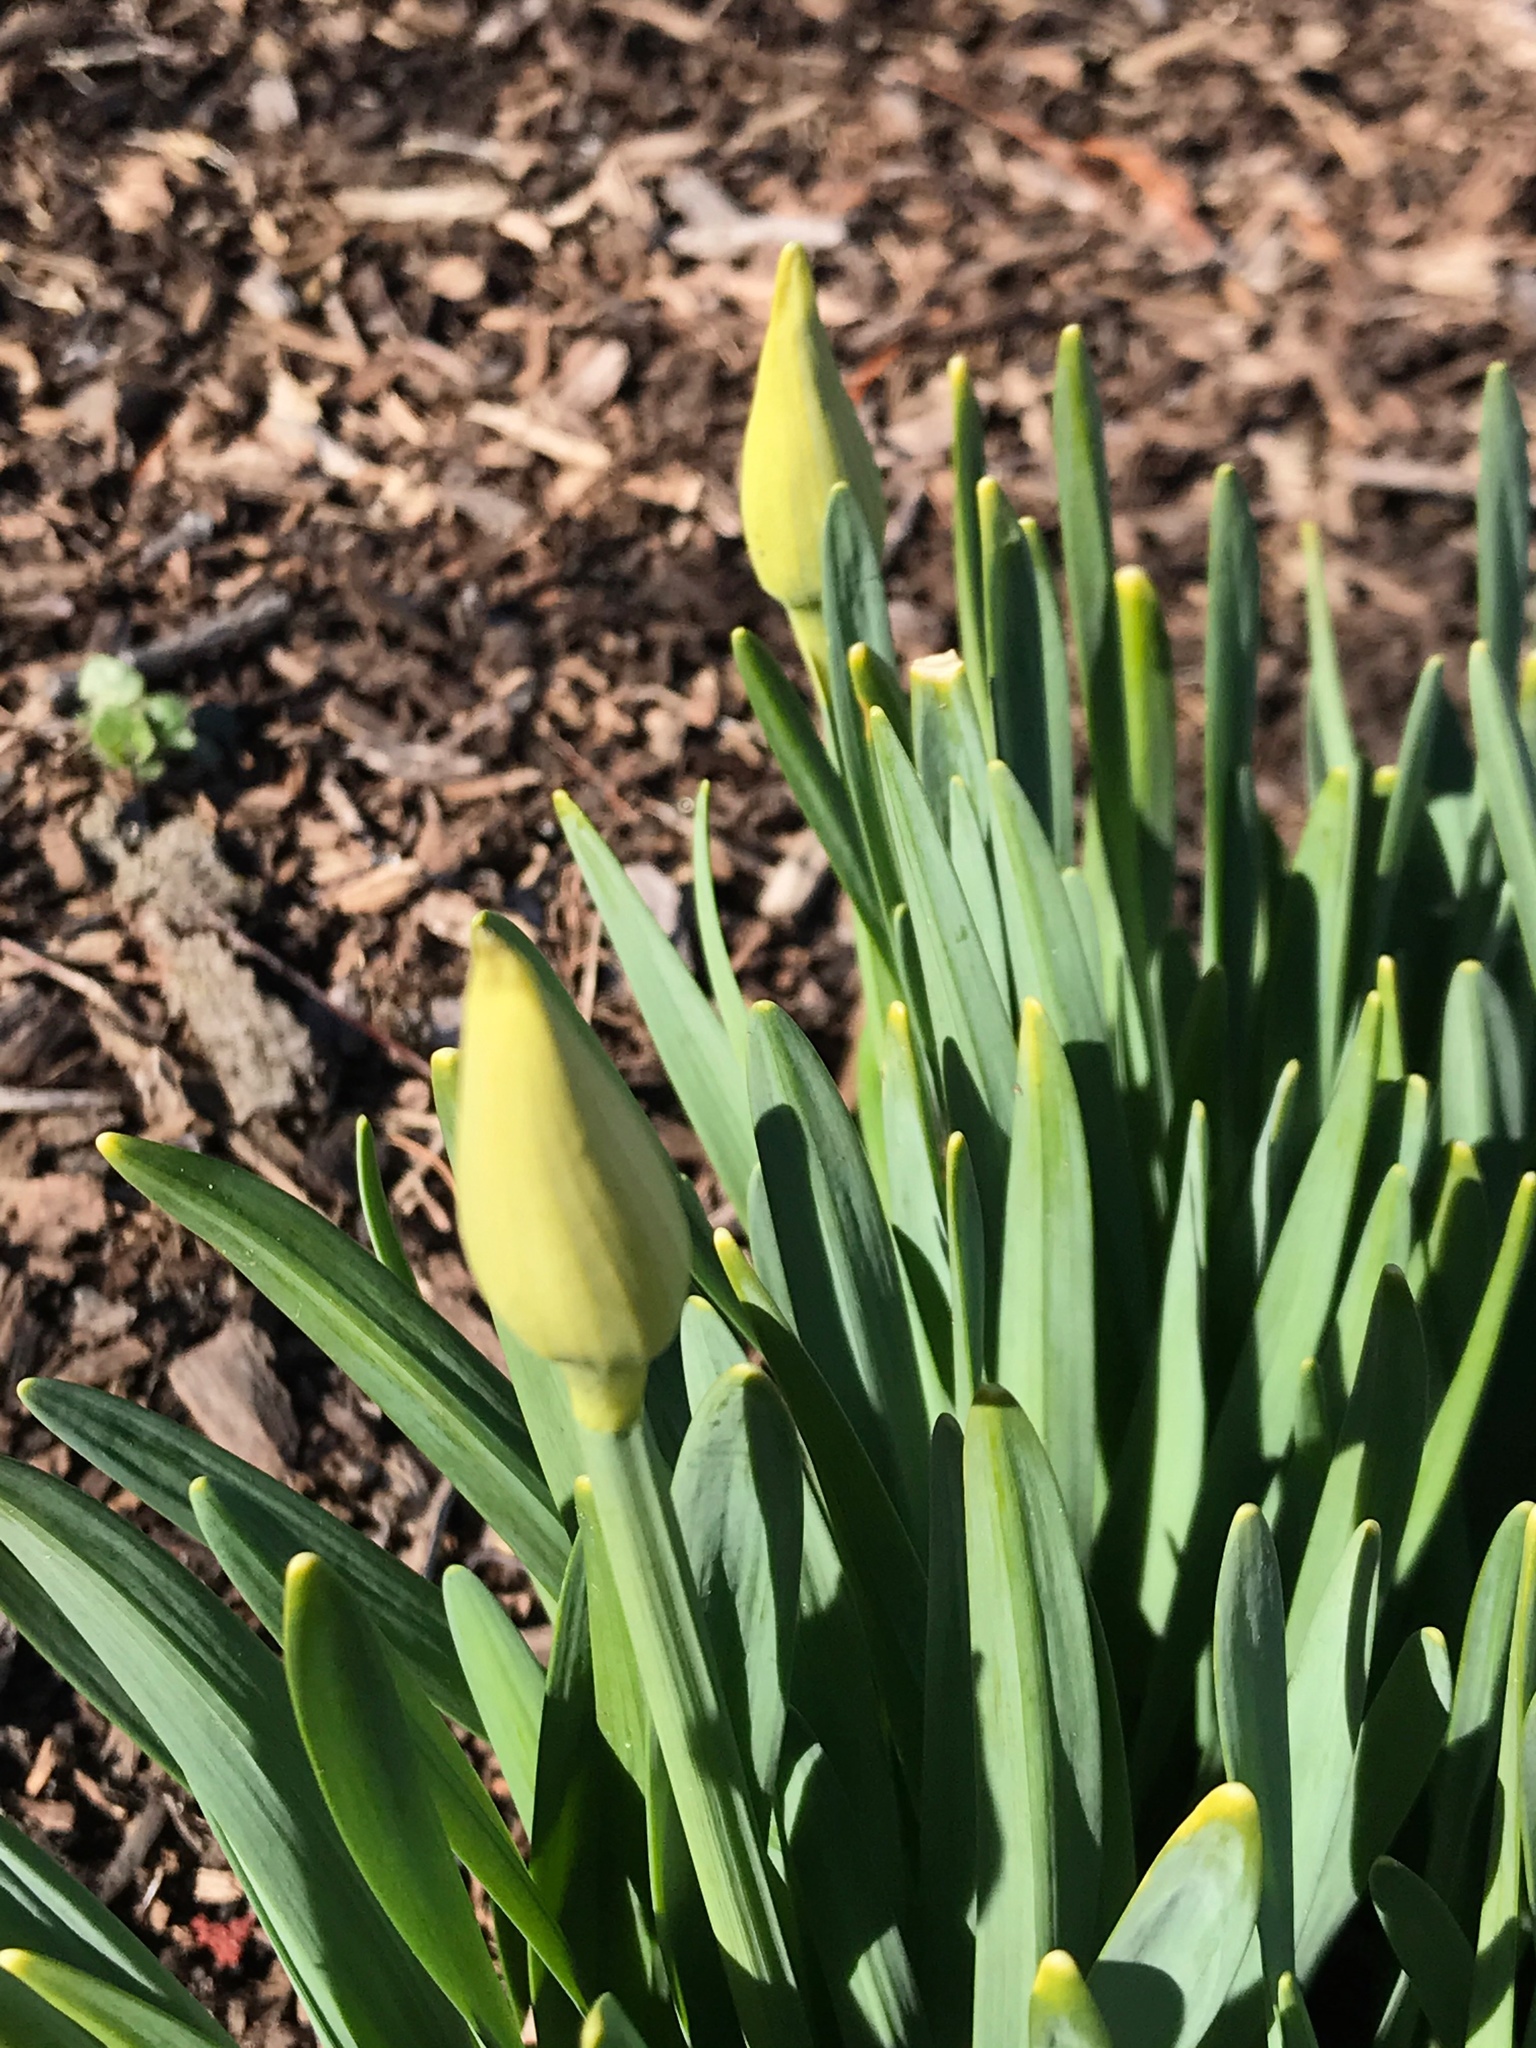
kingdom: Plantae
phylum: Tracheophyta
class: Liliopsida
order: Asparagales
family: Amaryllidaceae
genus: Narcissus
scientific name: Narcissus
